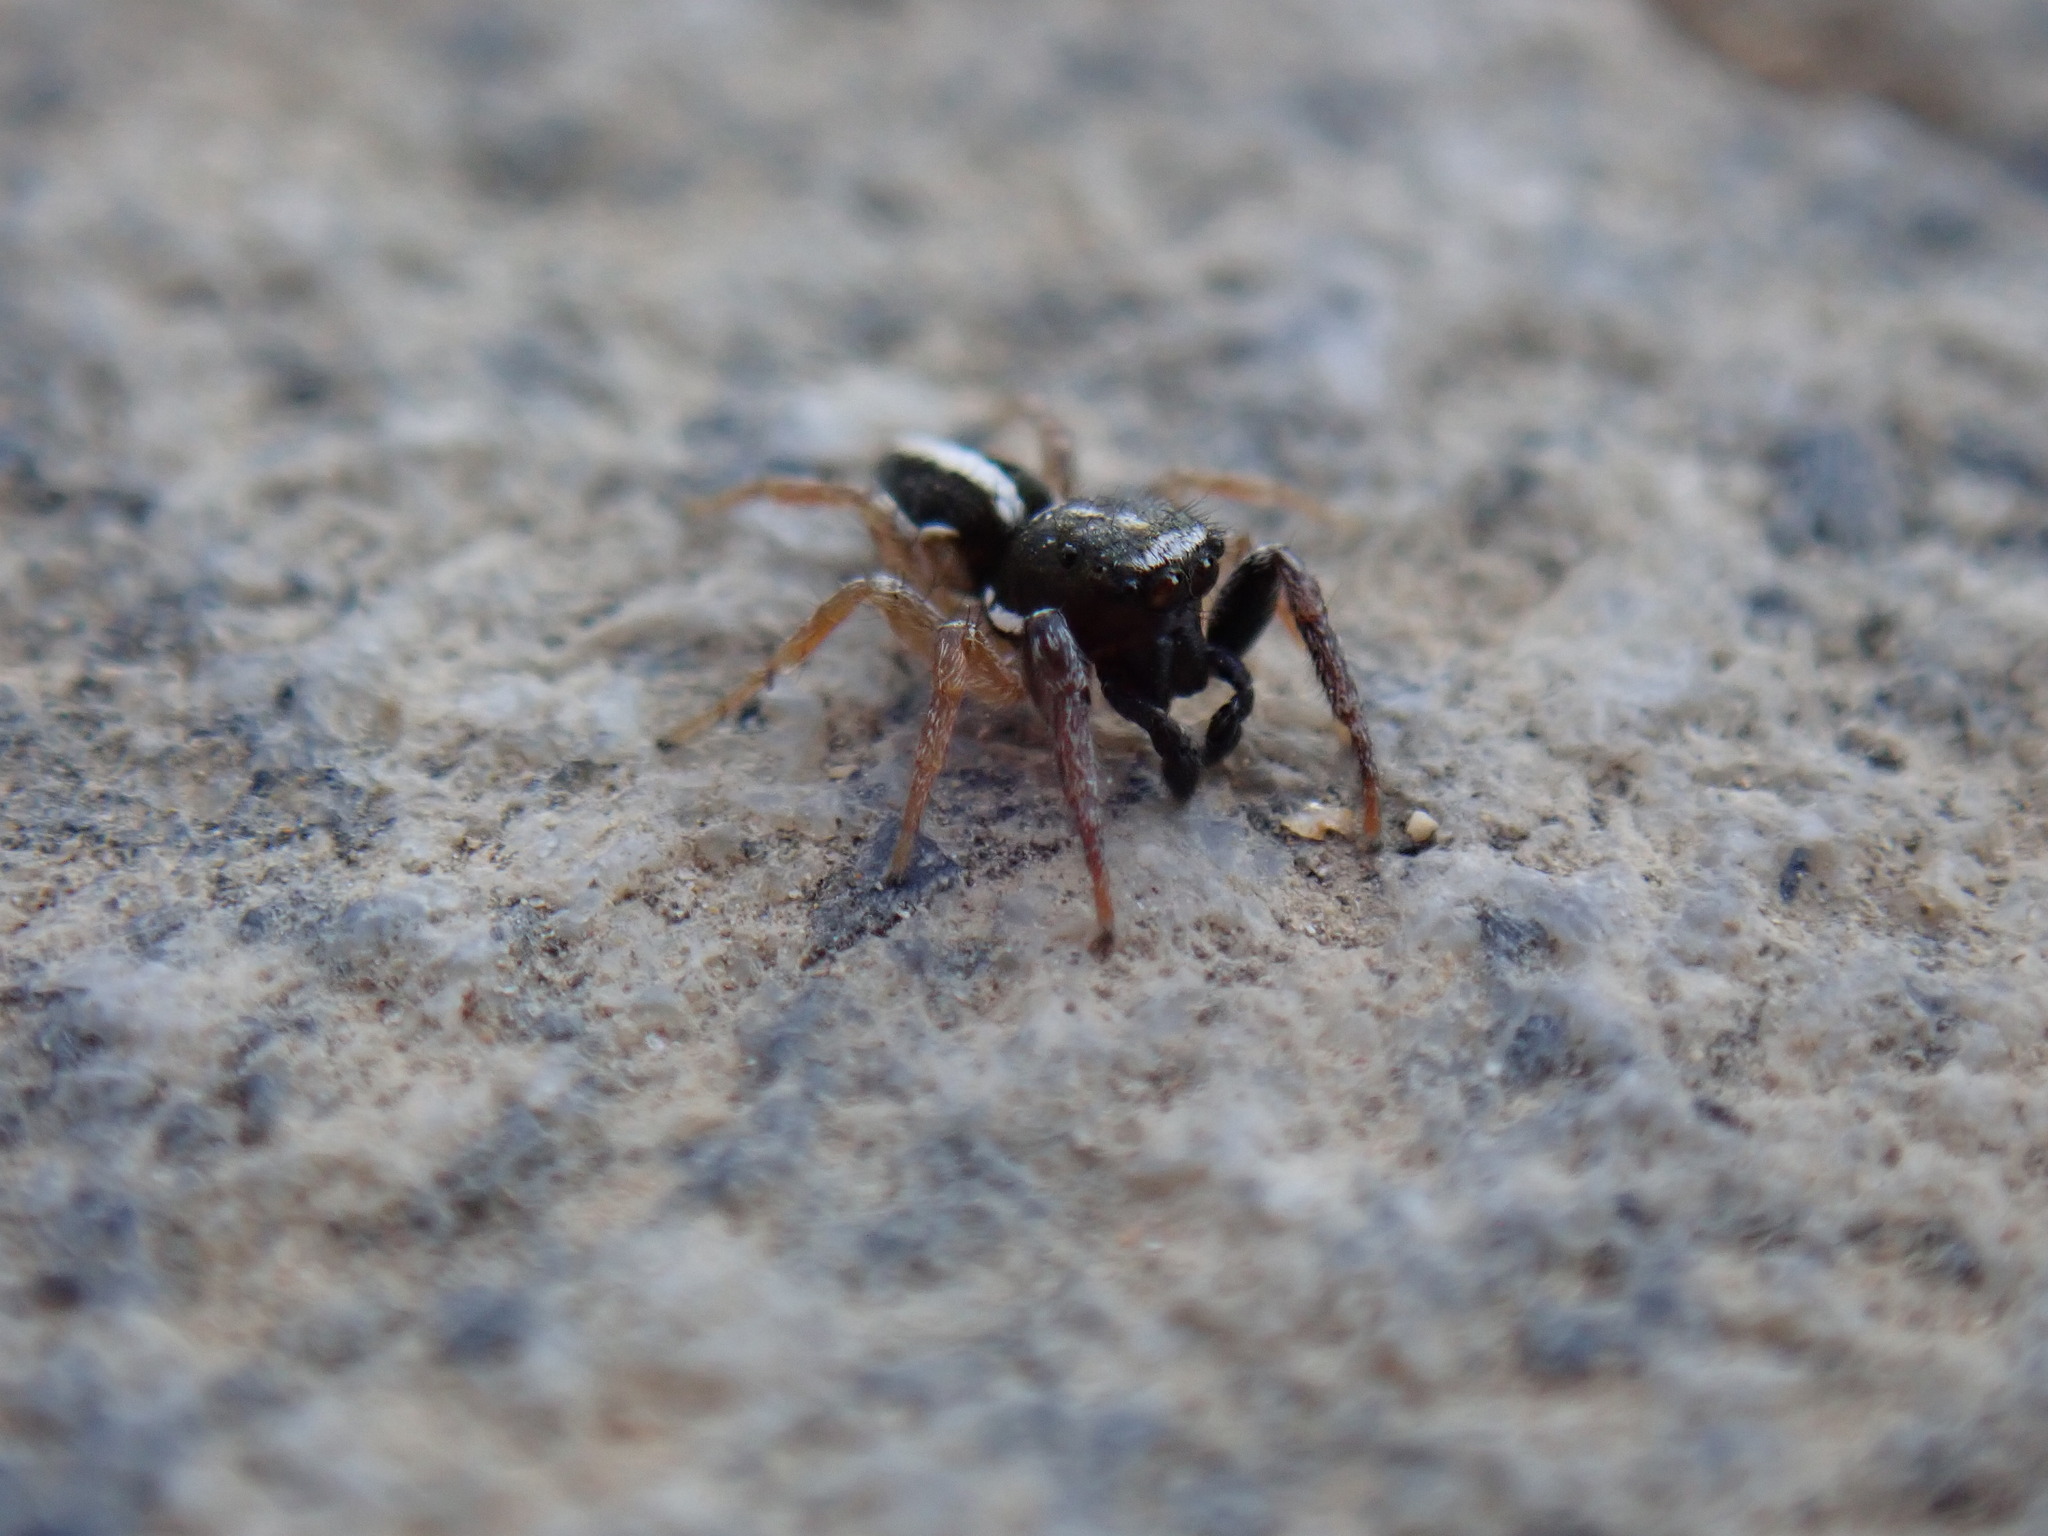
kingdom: Animalia
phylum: Arthropoda
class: Arachnida
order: Araneae
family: Salticidae
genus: Heliophanus
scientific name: Heliophanus
